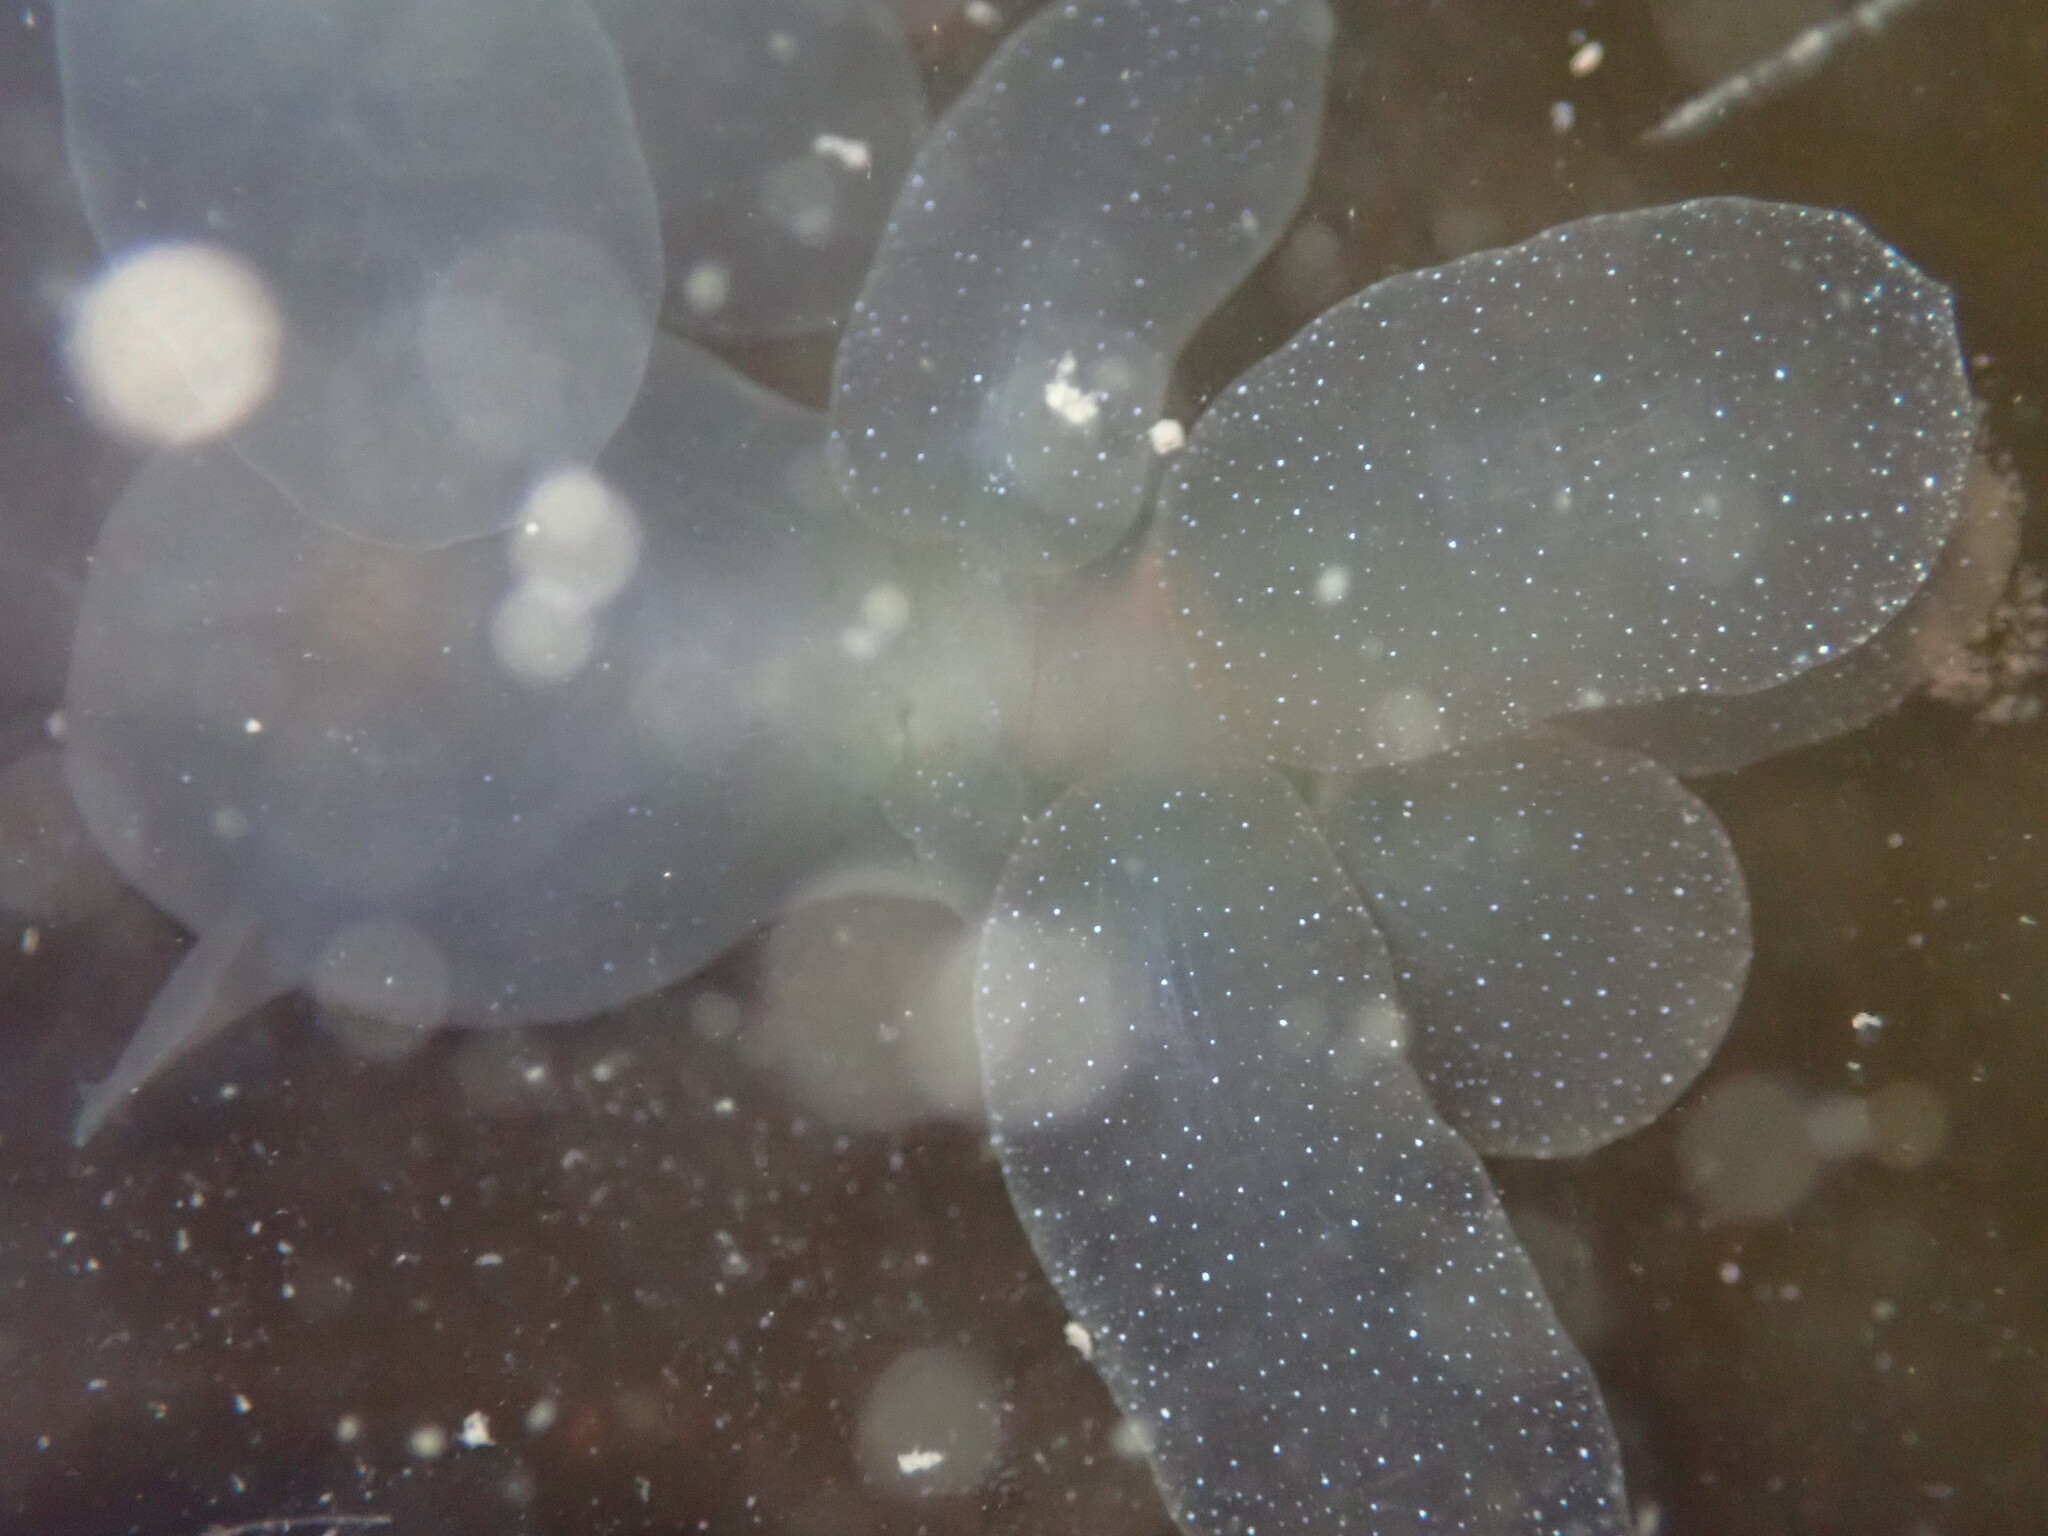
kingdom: Animalia
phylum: Mollusca
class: Gastropoda
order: Nudibranchia
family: Tethydidae
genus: Melibe
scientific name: Melibe leonina
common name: Lion nudibranch
